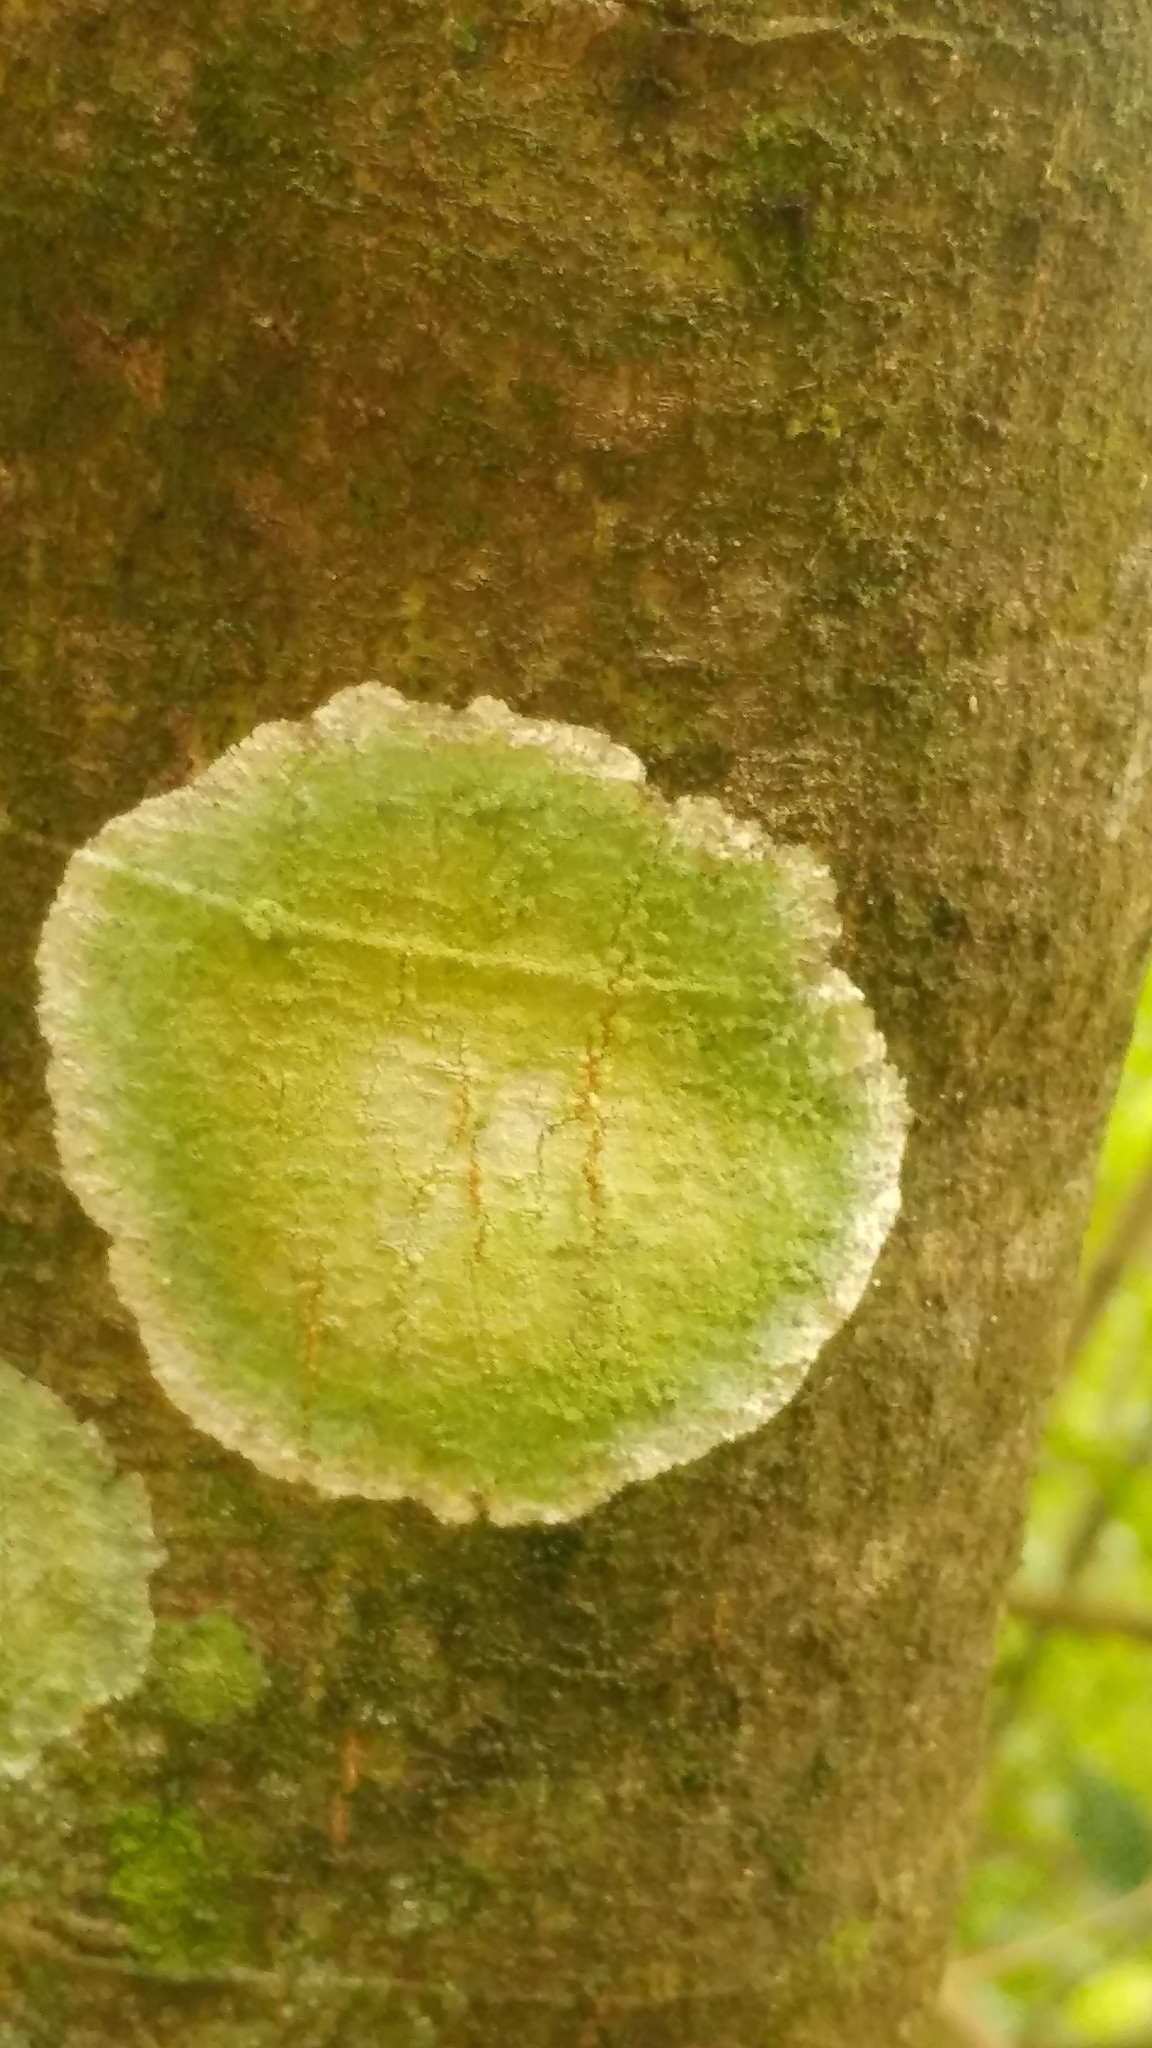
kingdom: Fungi
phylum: Ascomycota
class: Arthoniomycetes
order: Arthoniales
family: Arthoniaceae
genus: Cryptothecia
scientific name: Cryptothecia striata
